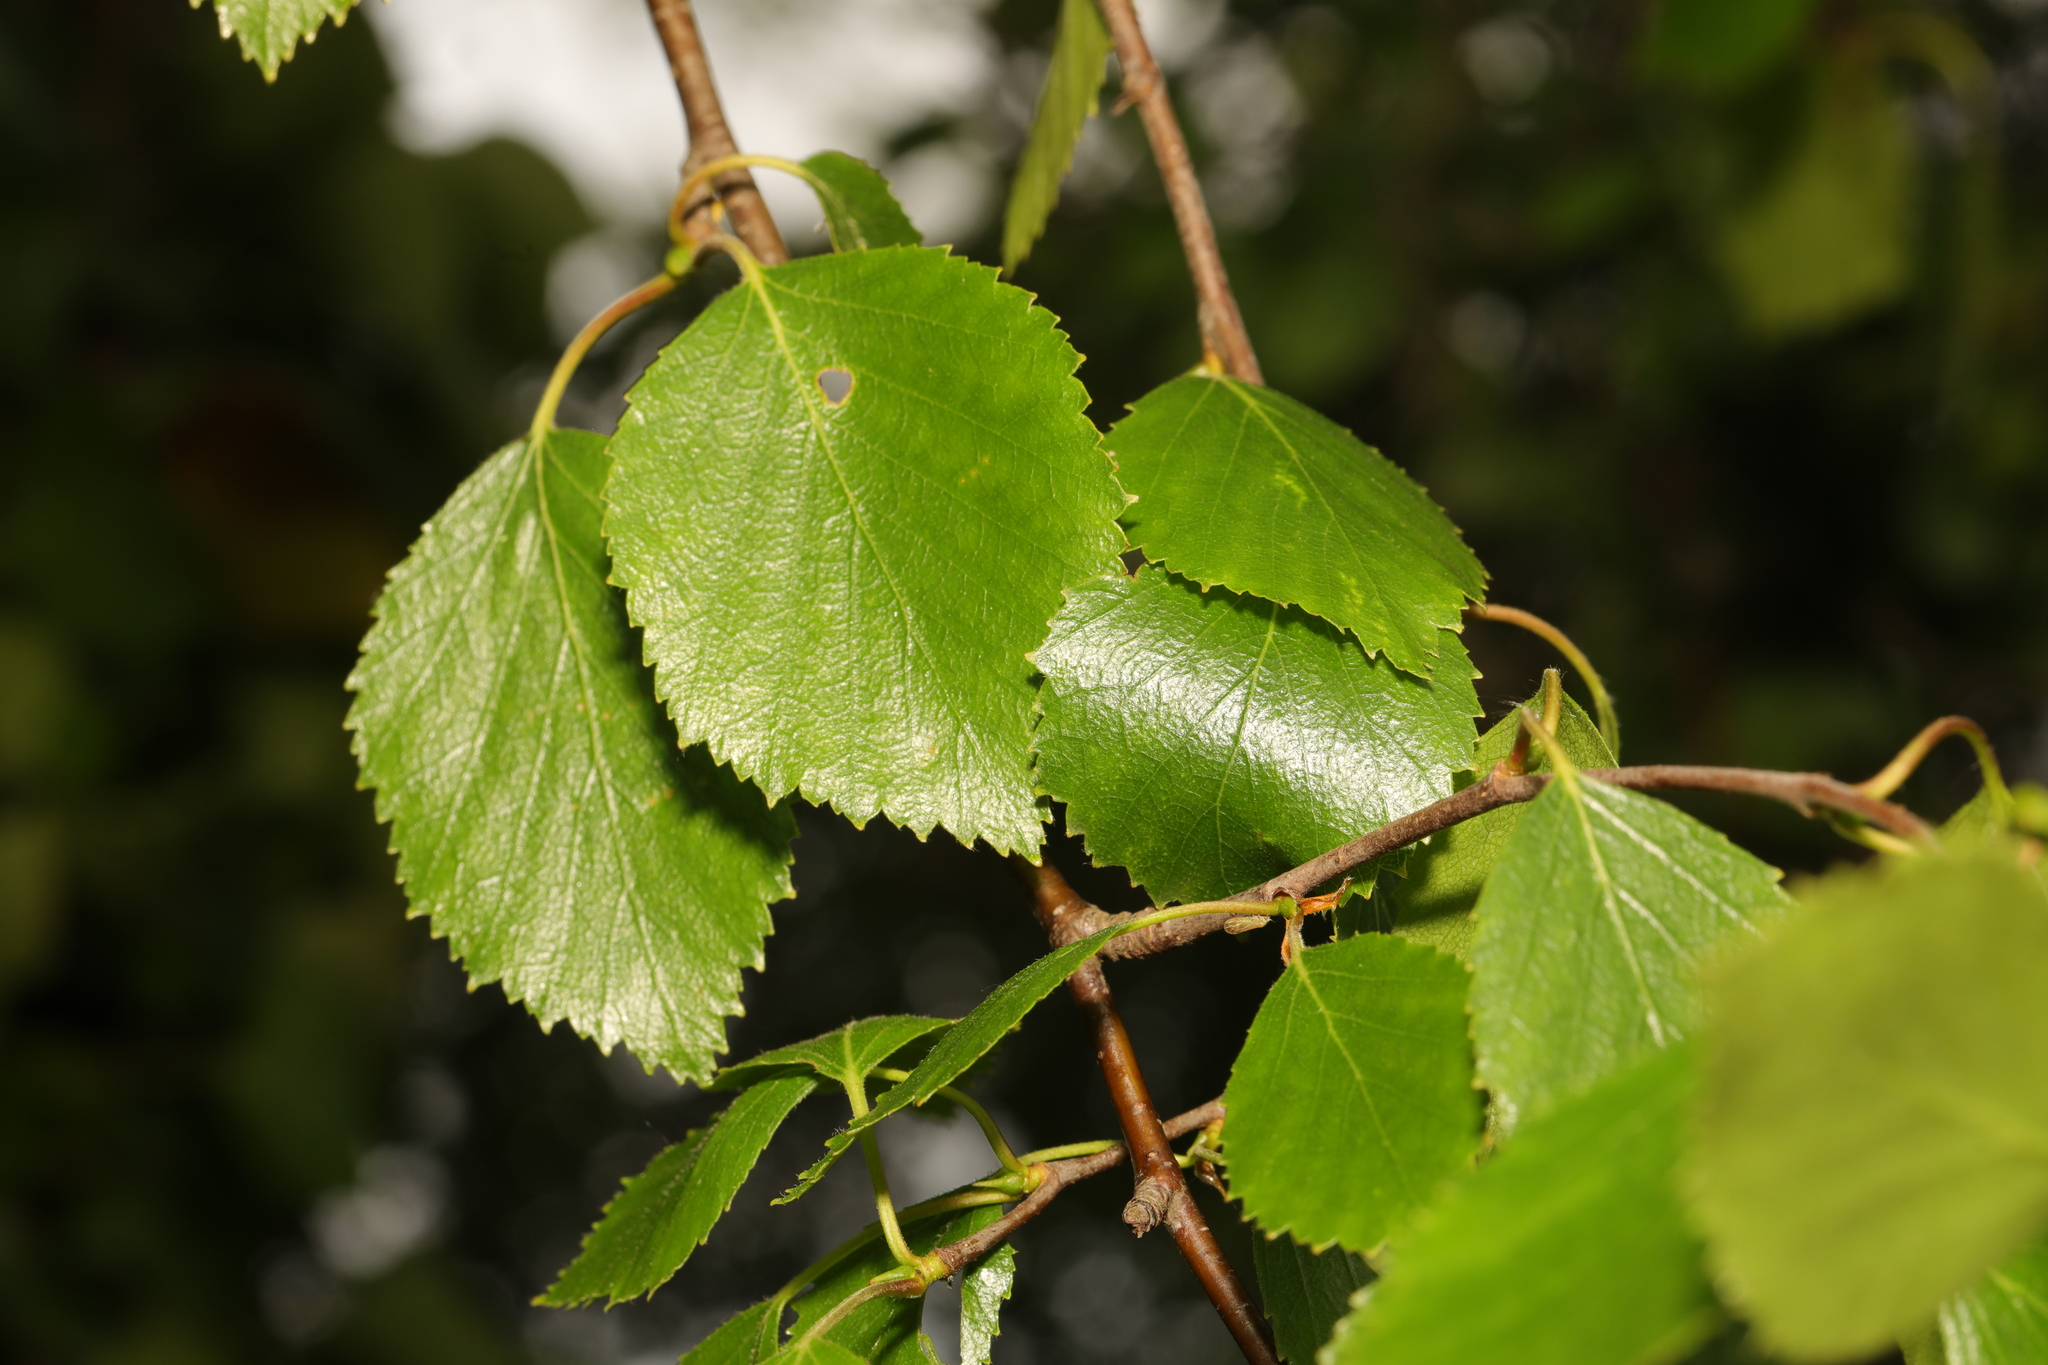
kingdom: Plantae
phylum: Tracheophyta
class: Magnoliopsida
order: Fagales
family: Betulaceae
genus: Betula
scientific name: Betula pubescens
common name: Downy birch
